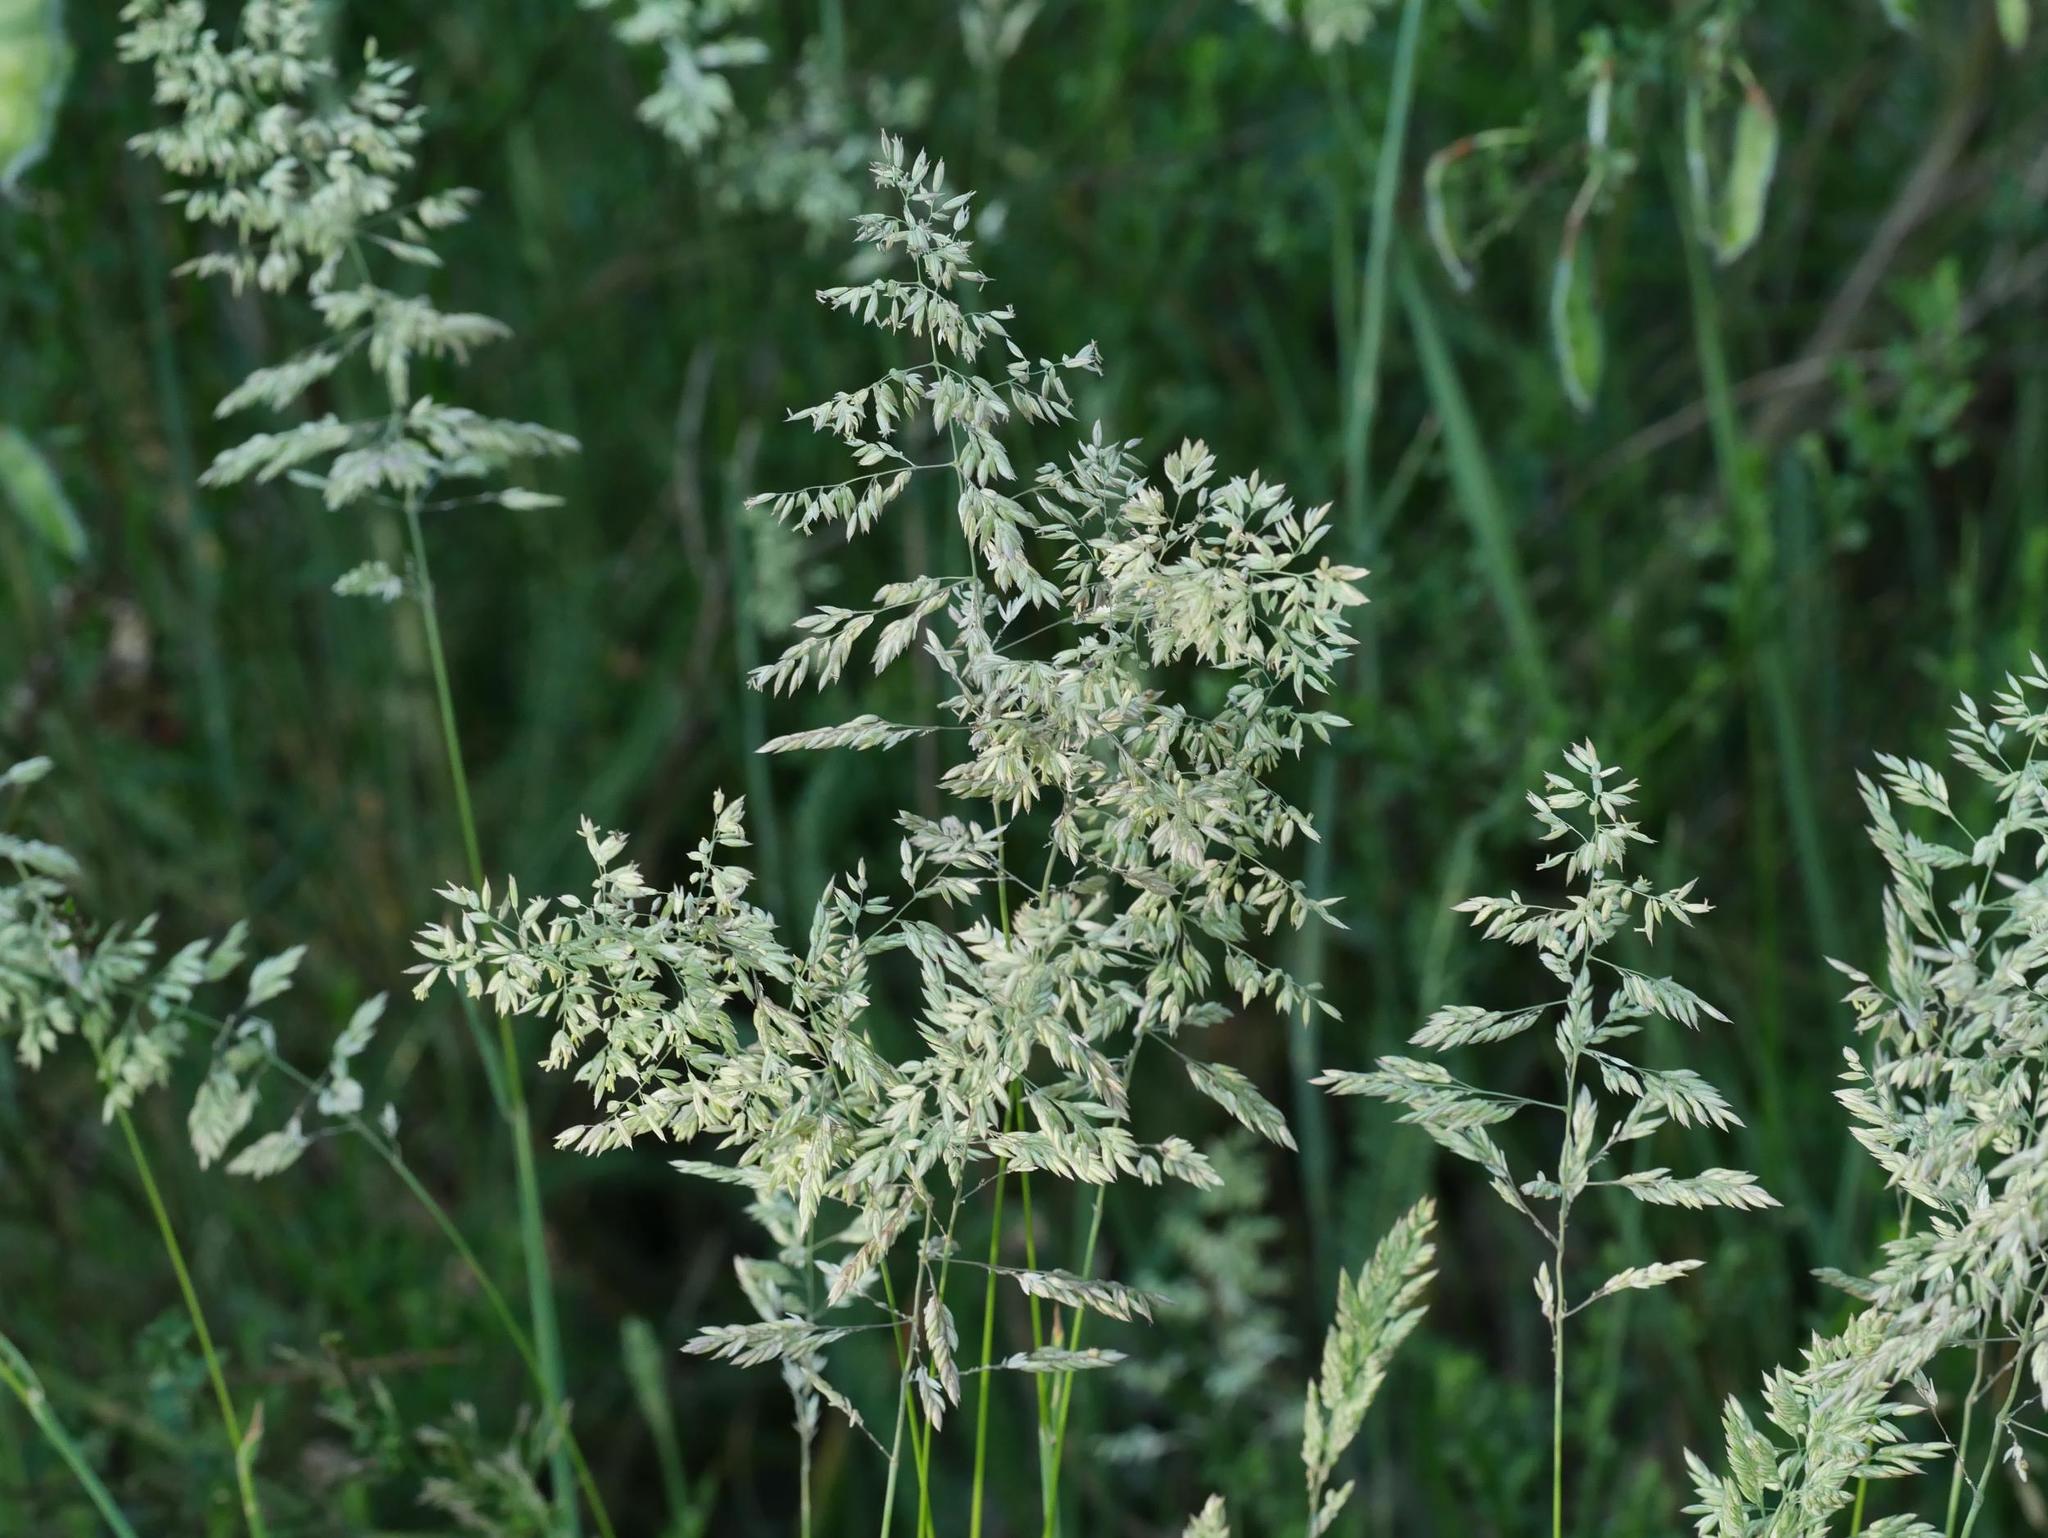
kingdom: Plantae
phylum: Tracheophyta
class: Liliopsida
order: Poales
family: Poaceae
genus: Holcus
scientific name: Holcus lanatus
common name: Yorkshire-fog
